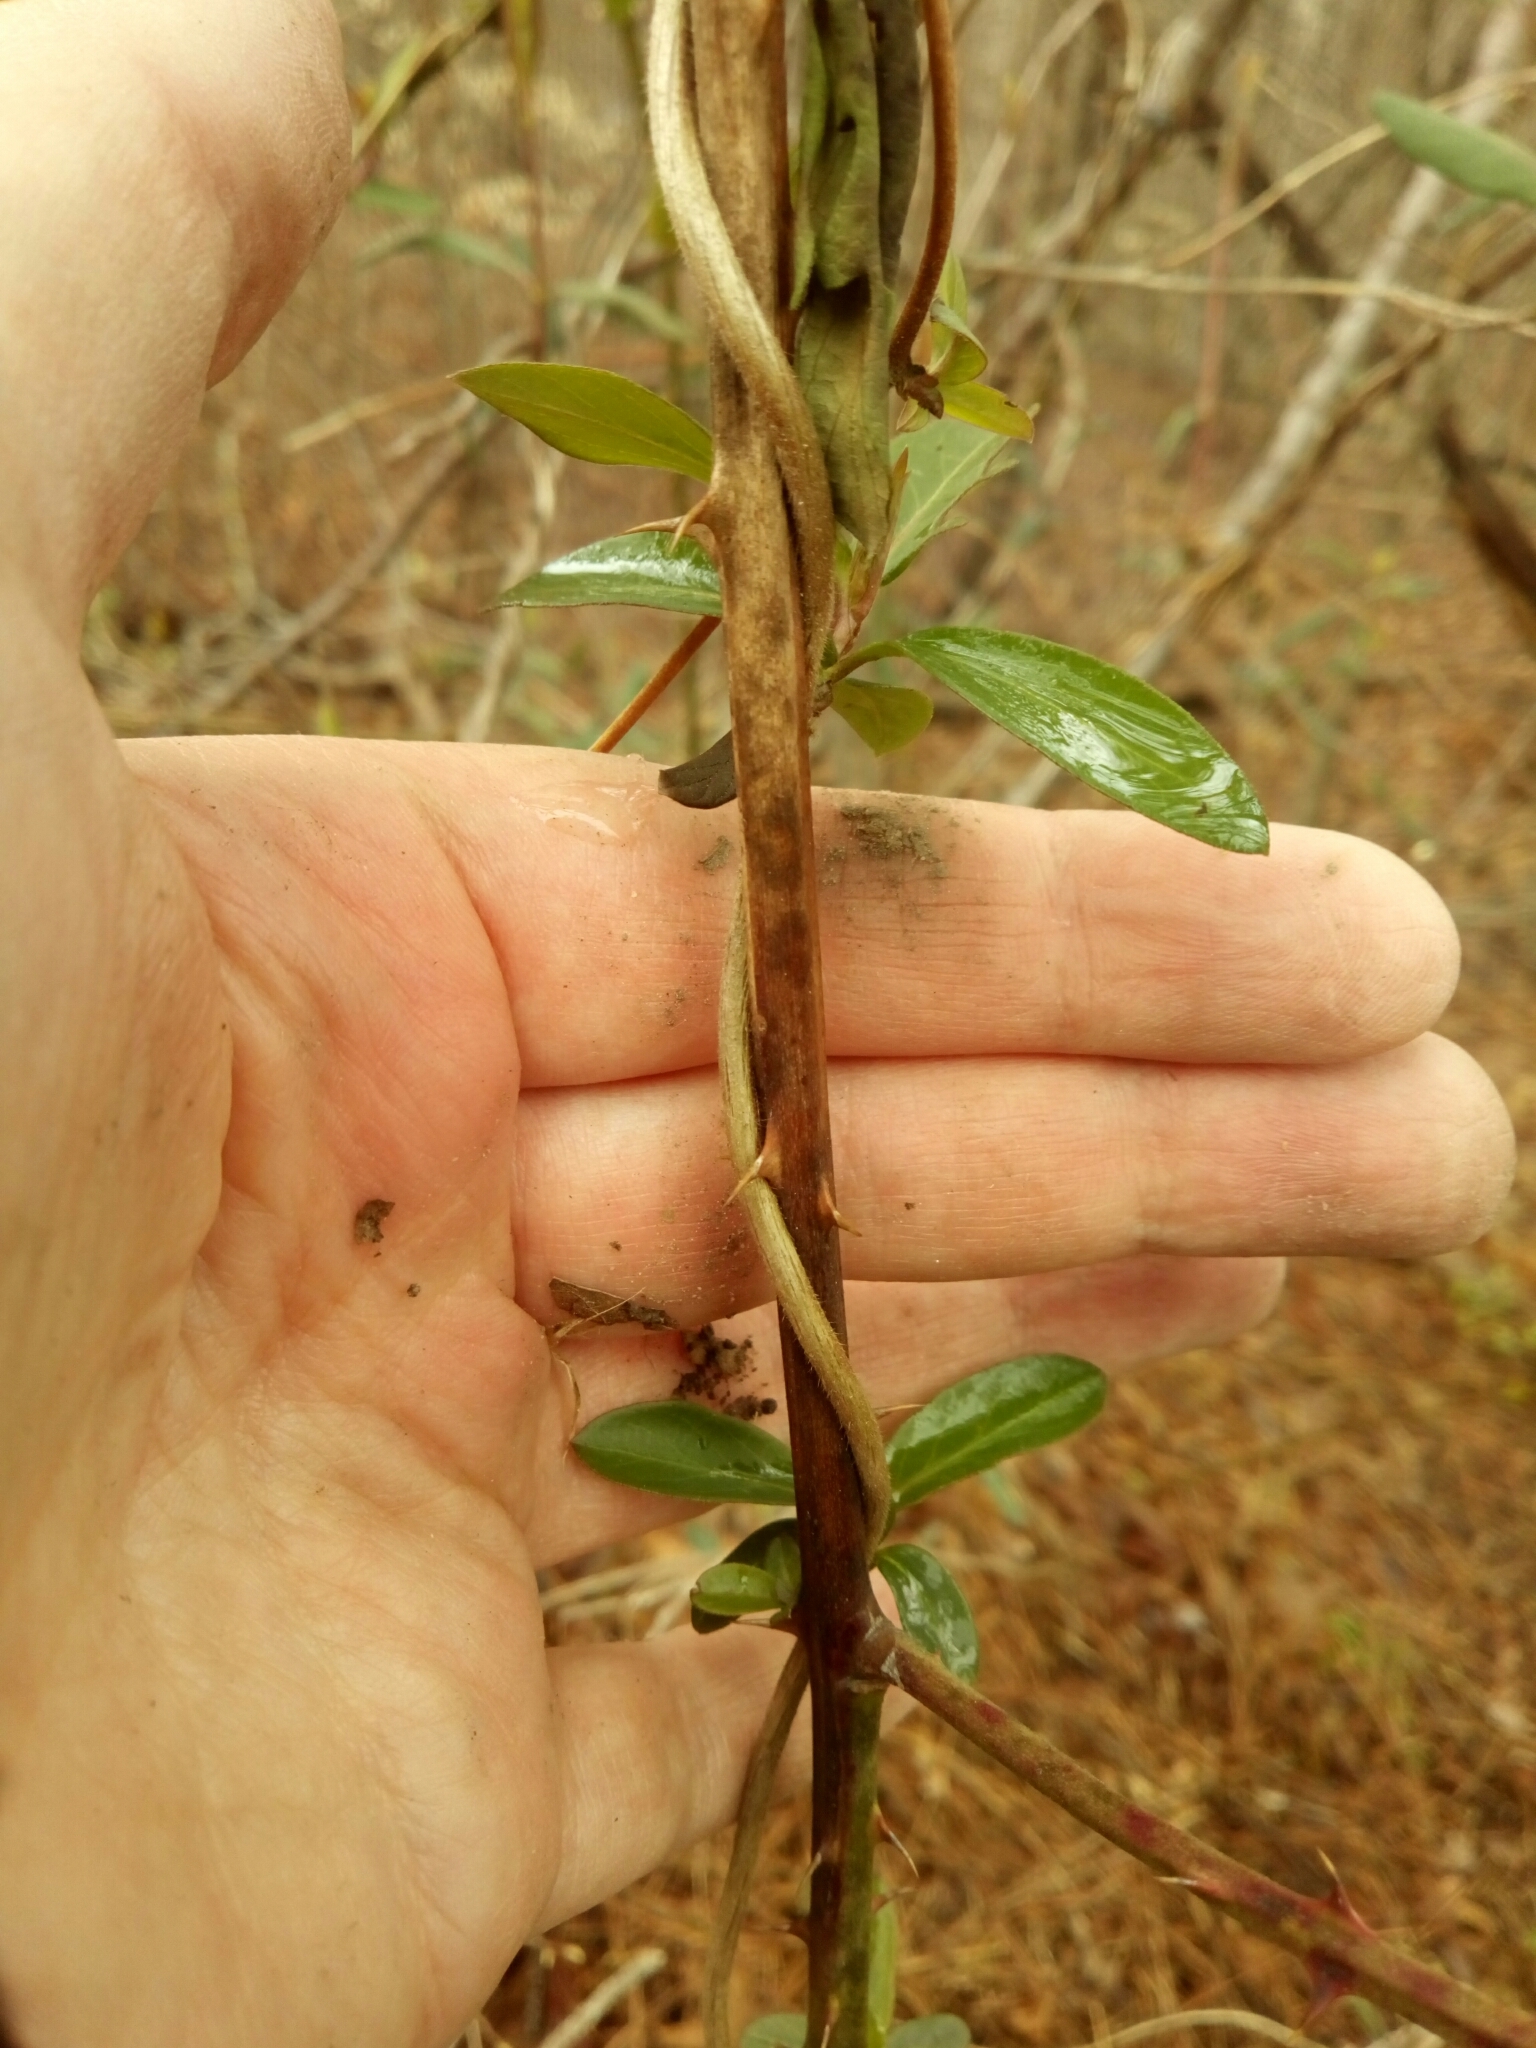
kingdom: Animalia
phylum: Arthropoda
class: Insecta
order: Hymenoptera
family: Cynipidae
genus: Diastrophus
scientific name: Diastrophus
